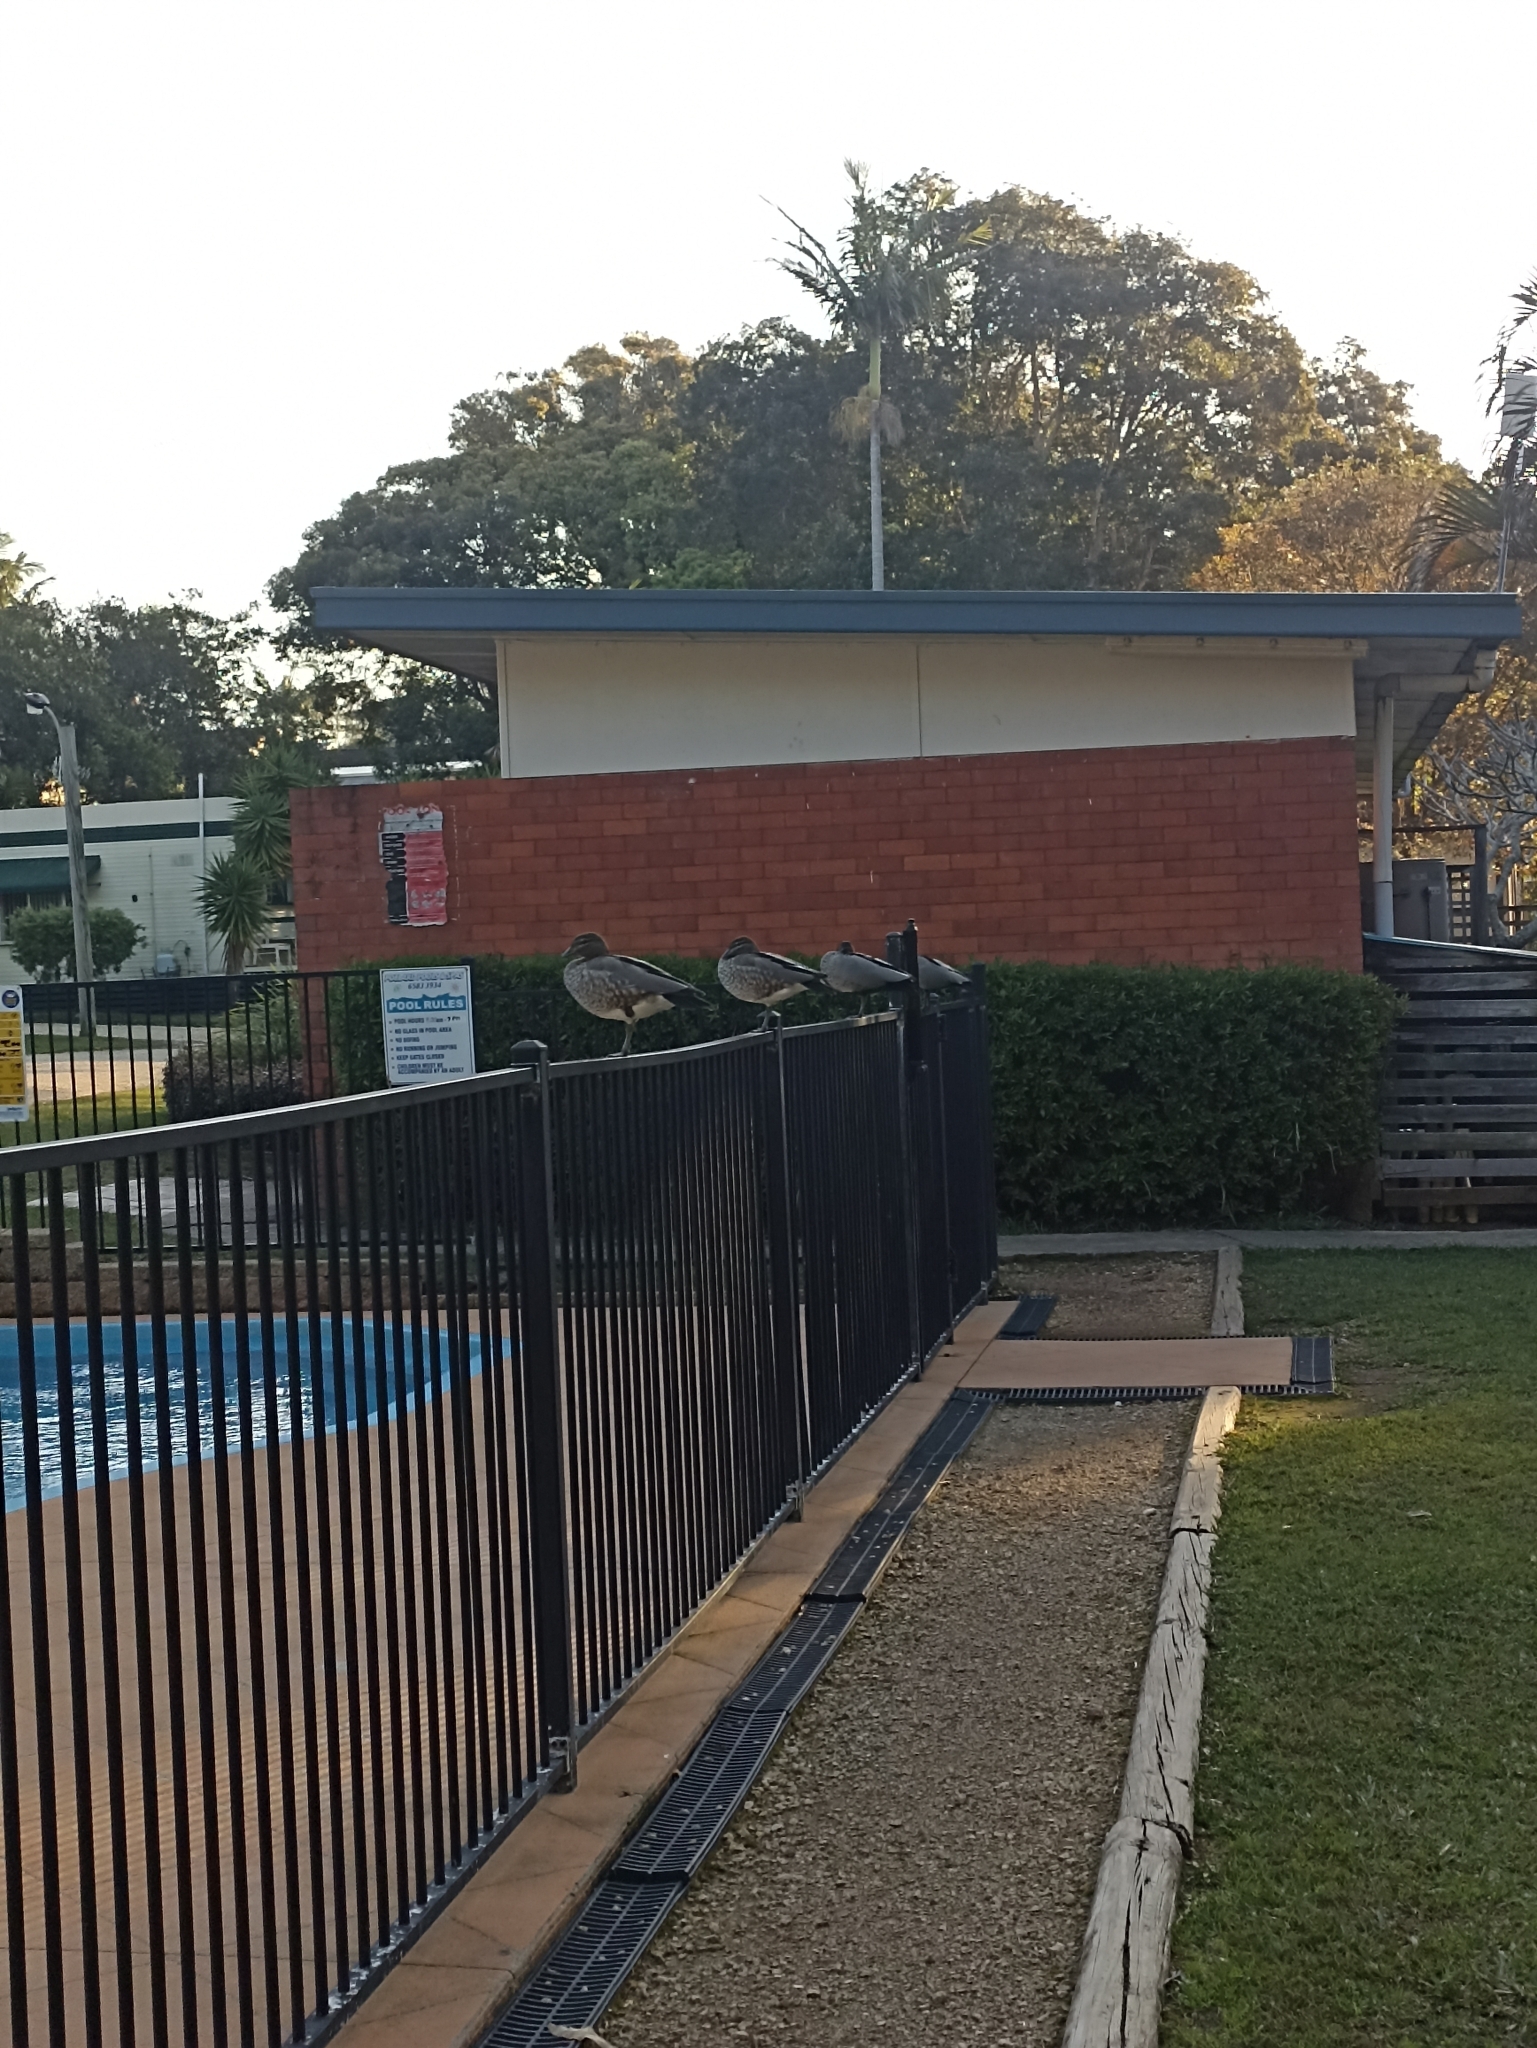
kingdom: Animalia
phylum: Chordata
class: Aves
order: Anseriformes
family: Anatidae
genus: Chenonetta
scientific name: Chenonetta jubata
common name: Maned duck
